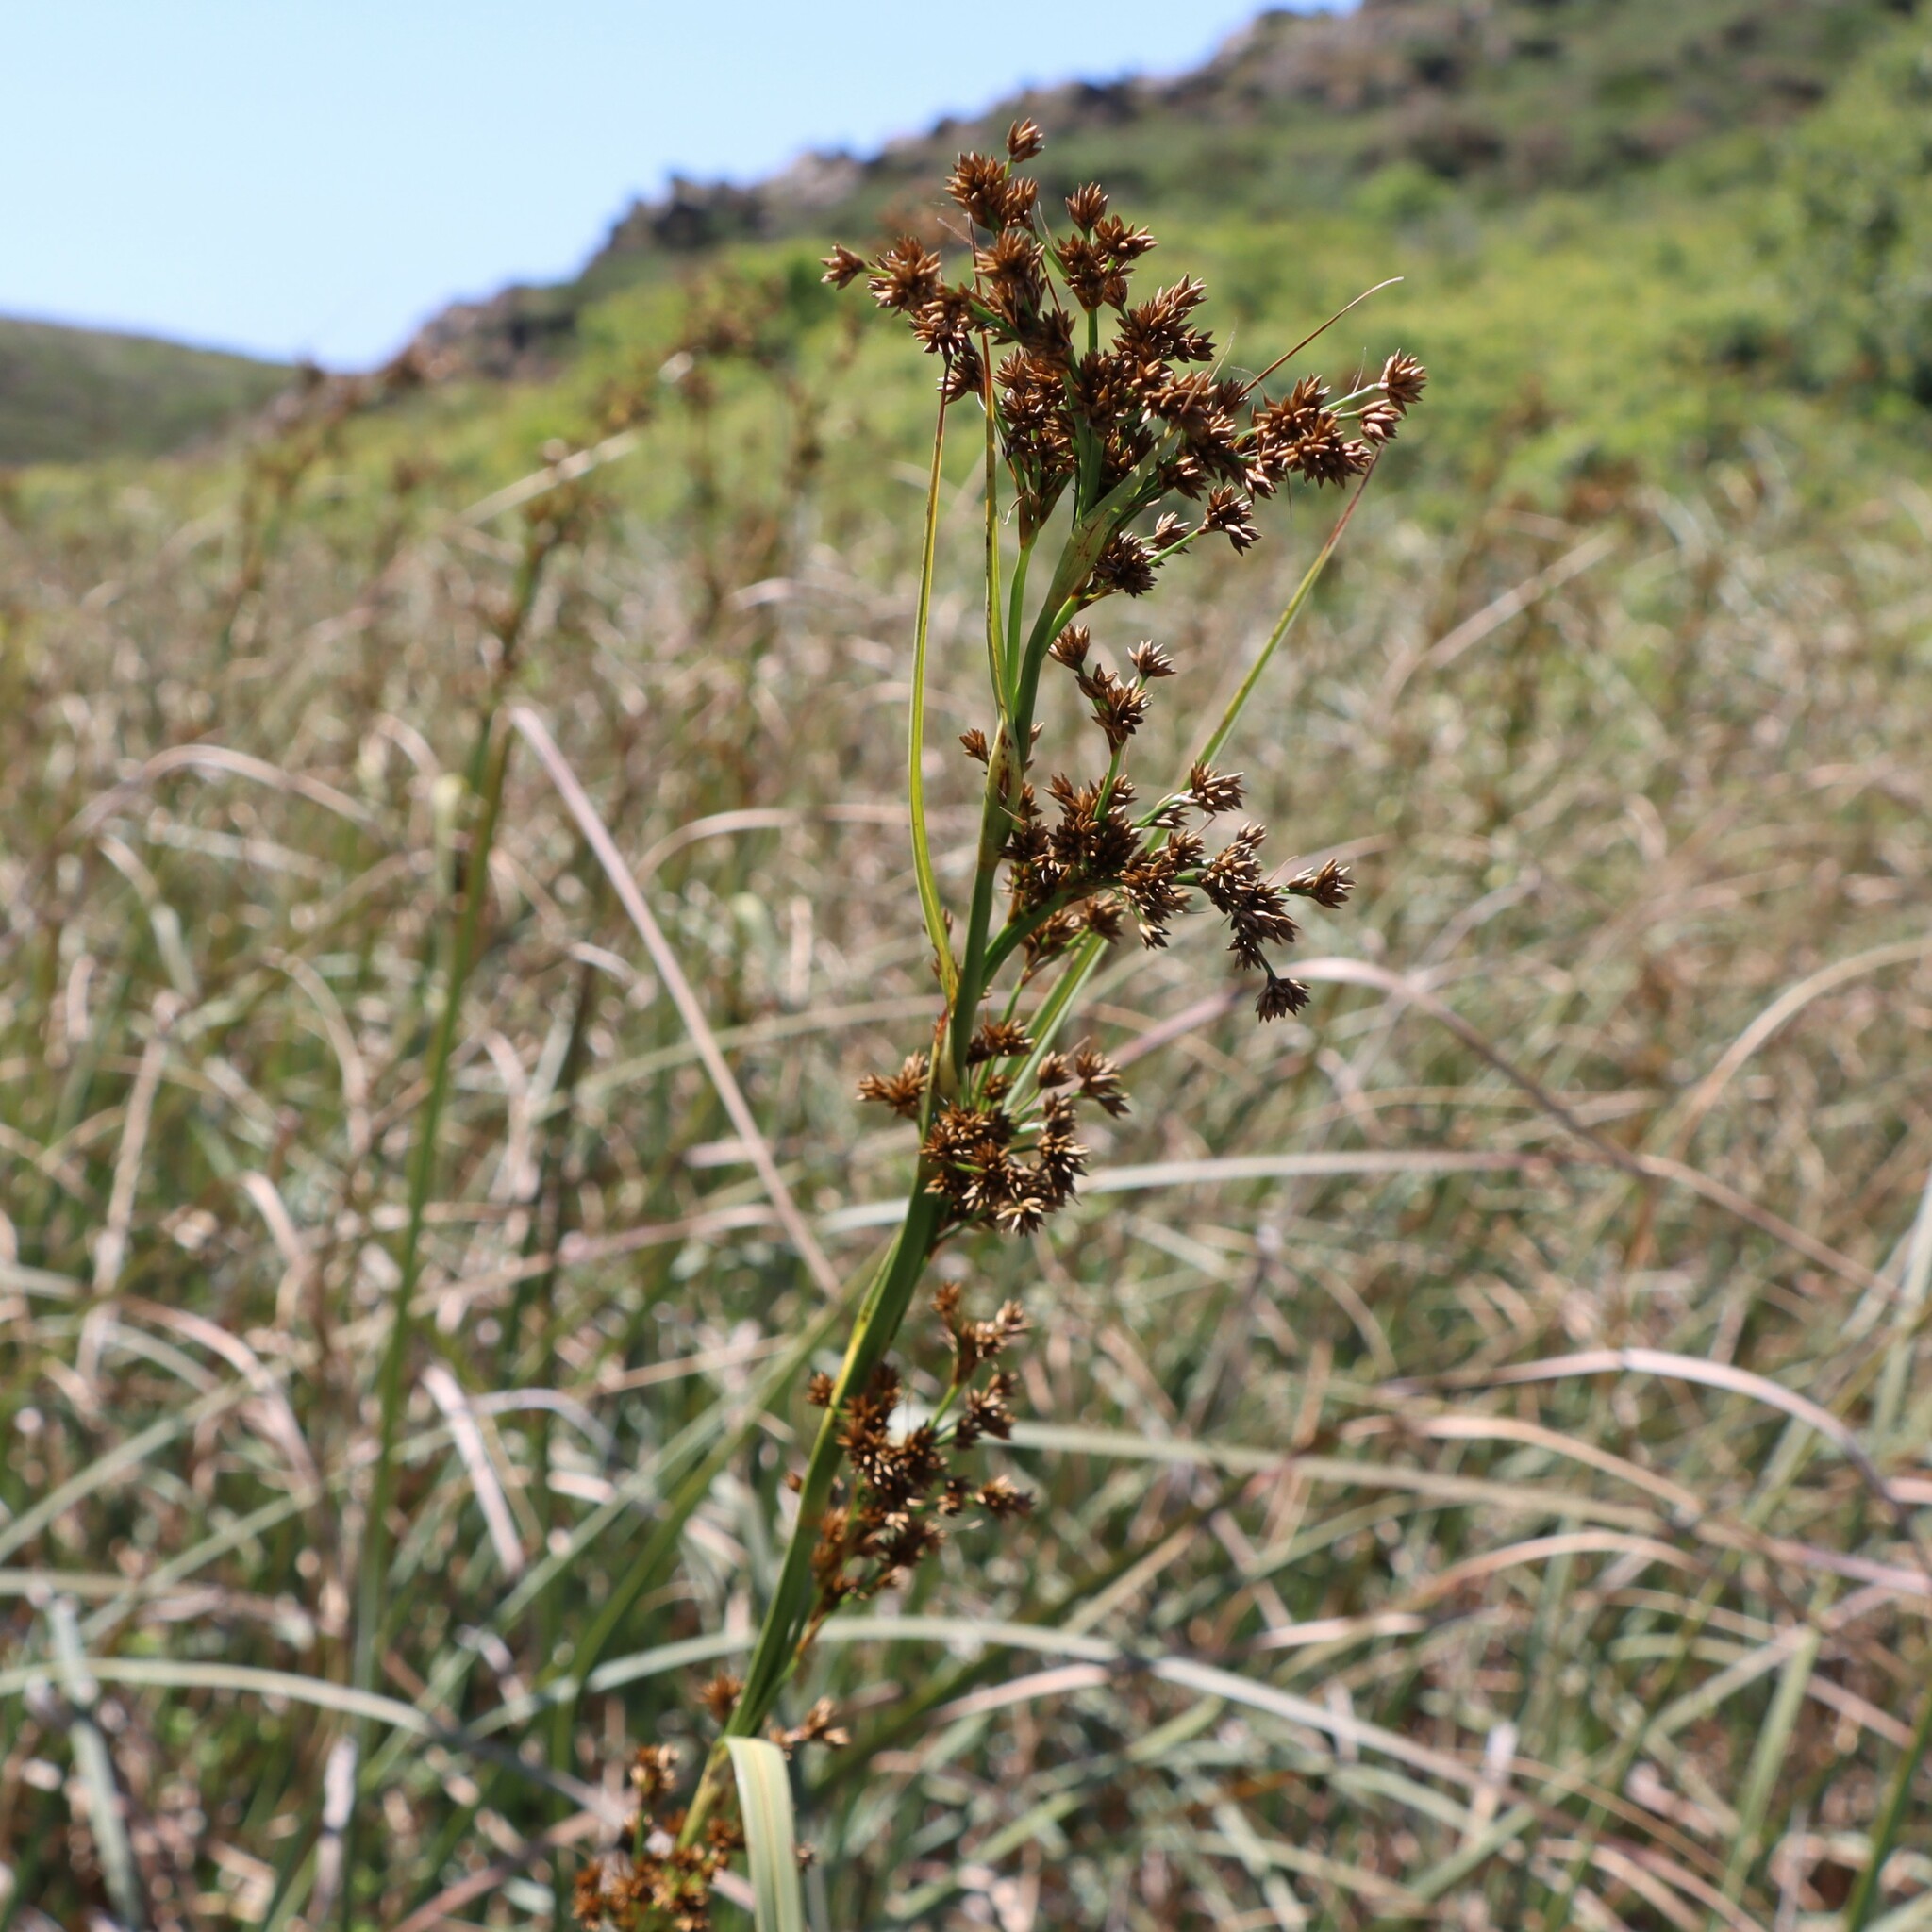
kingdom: Plantae
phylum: Tracheophyta
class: Liliopsida
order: Poales
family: Cyperaceae
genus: Cladium
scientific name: Cladium mariscus
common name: Great fen-sedge
